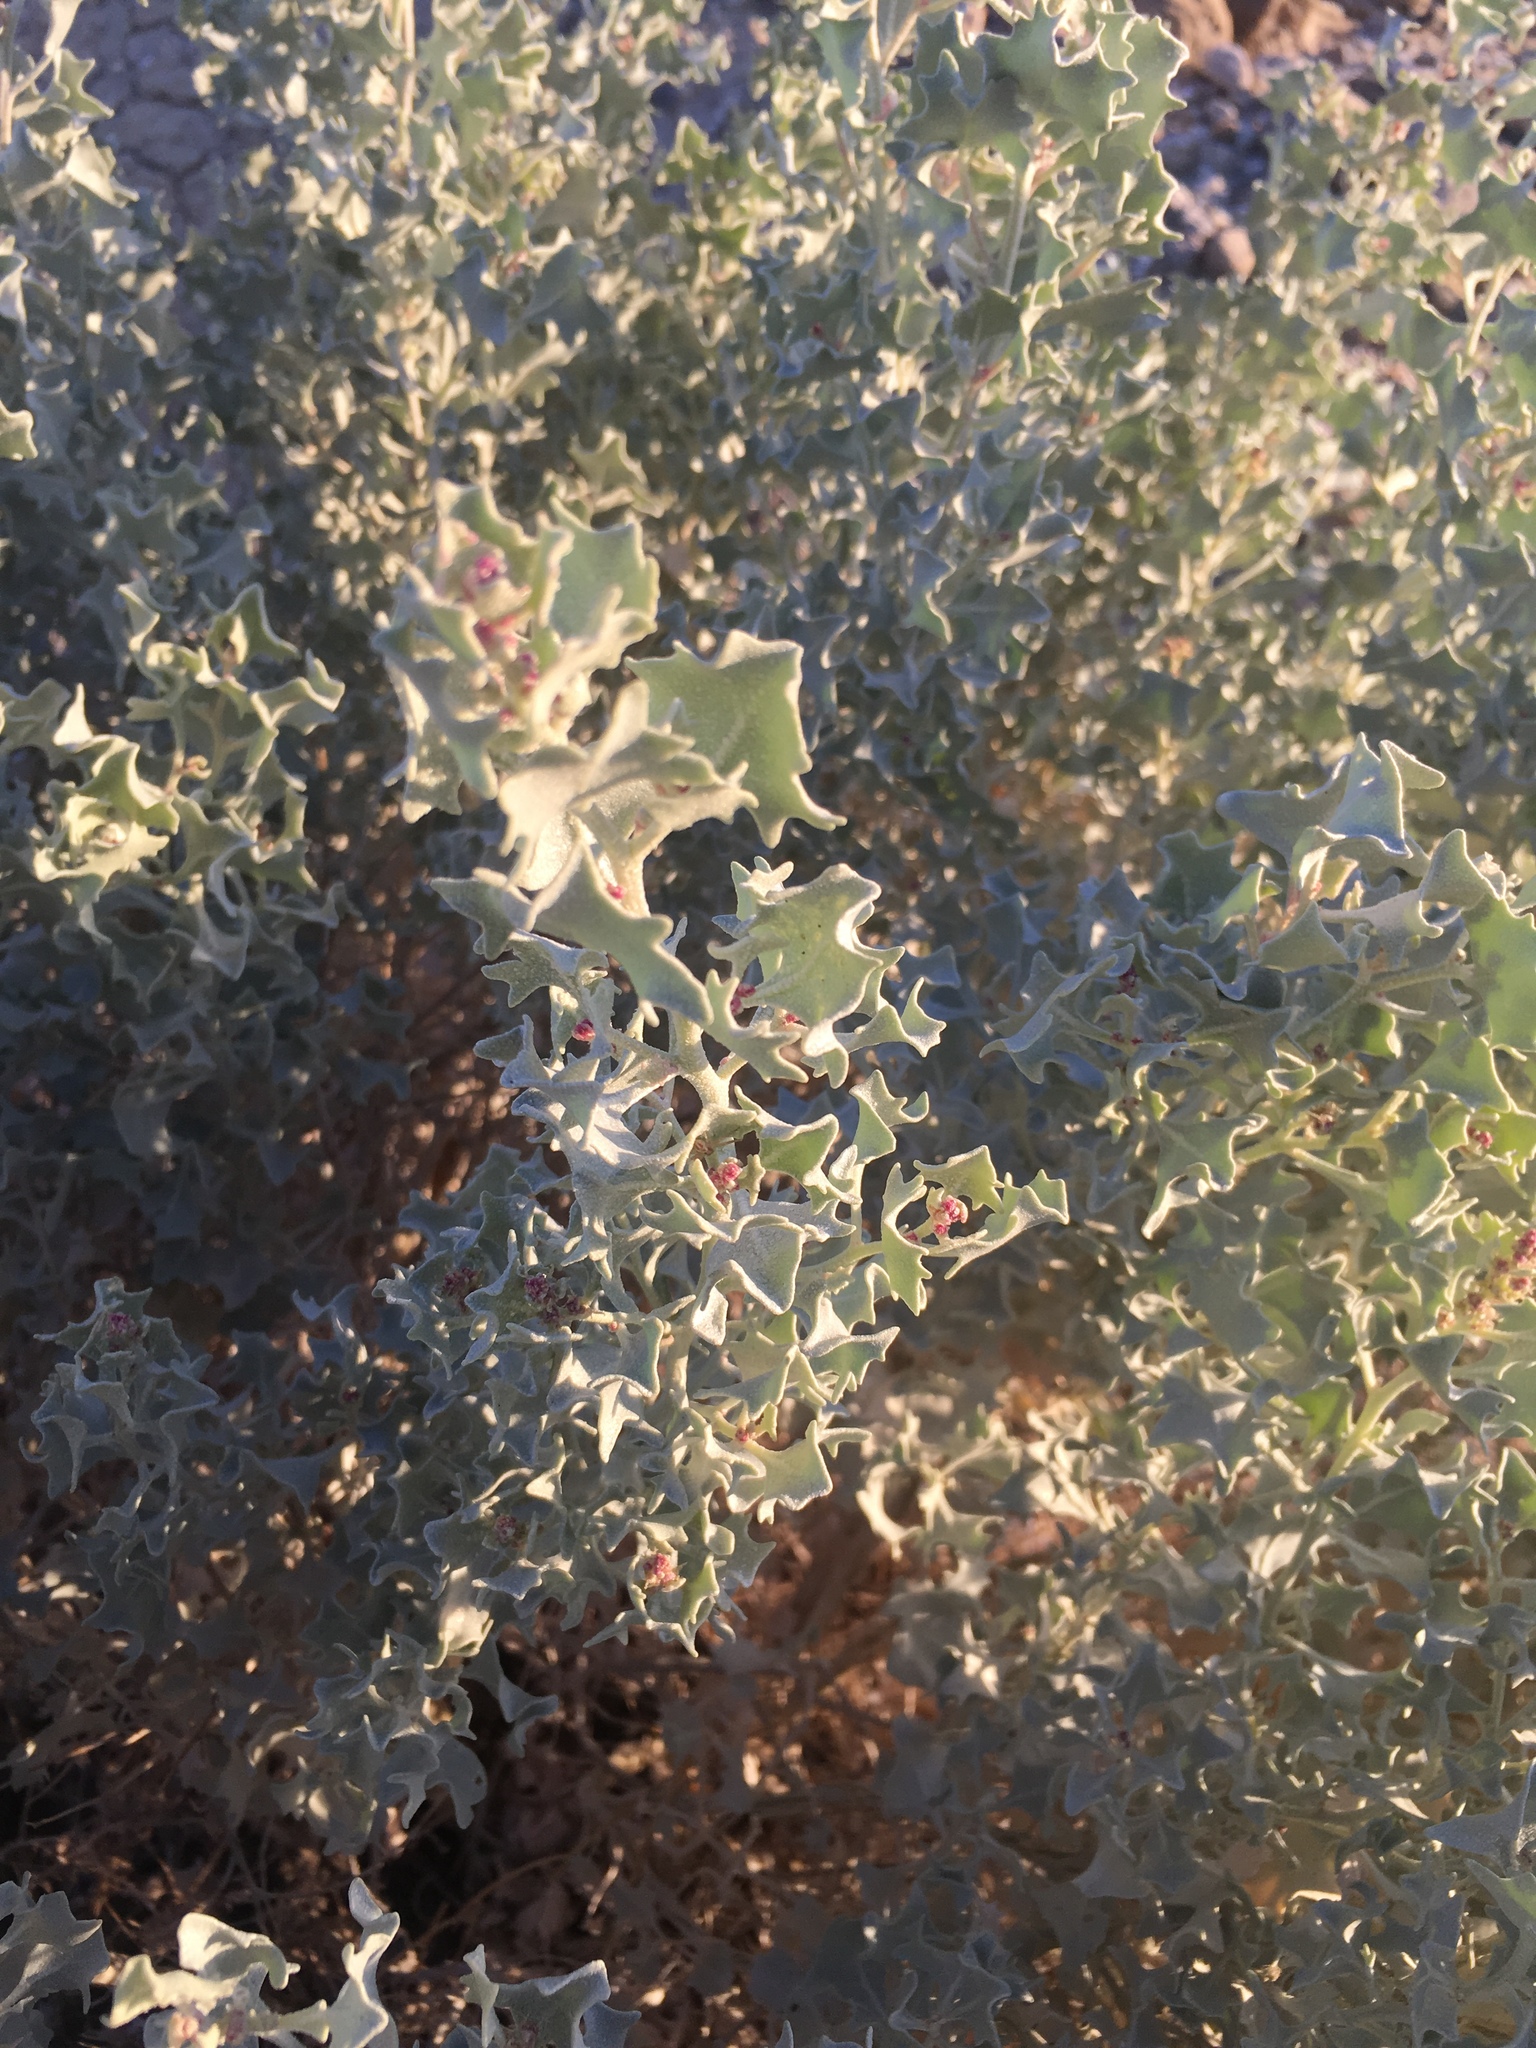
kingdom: Plantae
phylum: Tracheophyta
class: Magnoliopsida
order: Caryophyllales
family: Amaranthaceae
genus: Atriplex
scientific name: Atriplex hymenelytra
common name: Desert-holly
